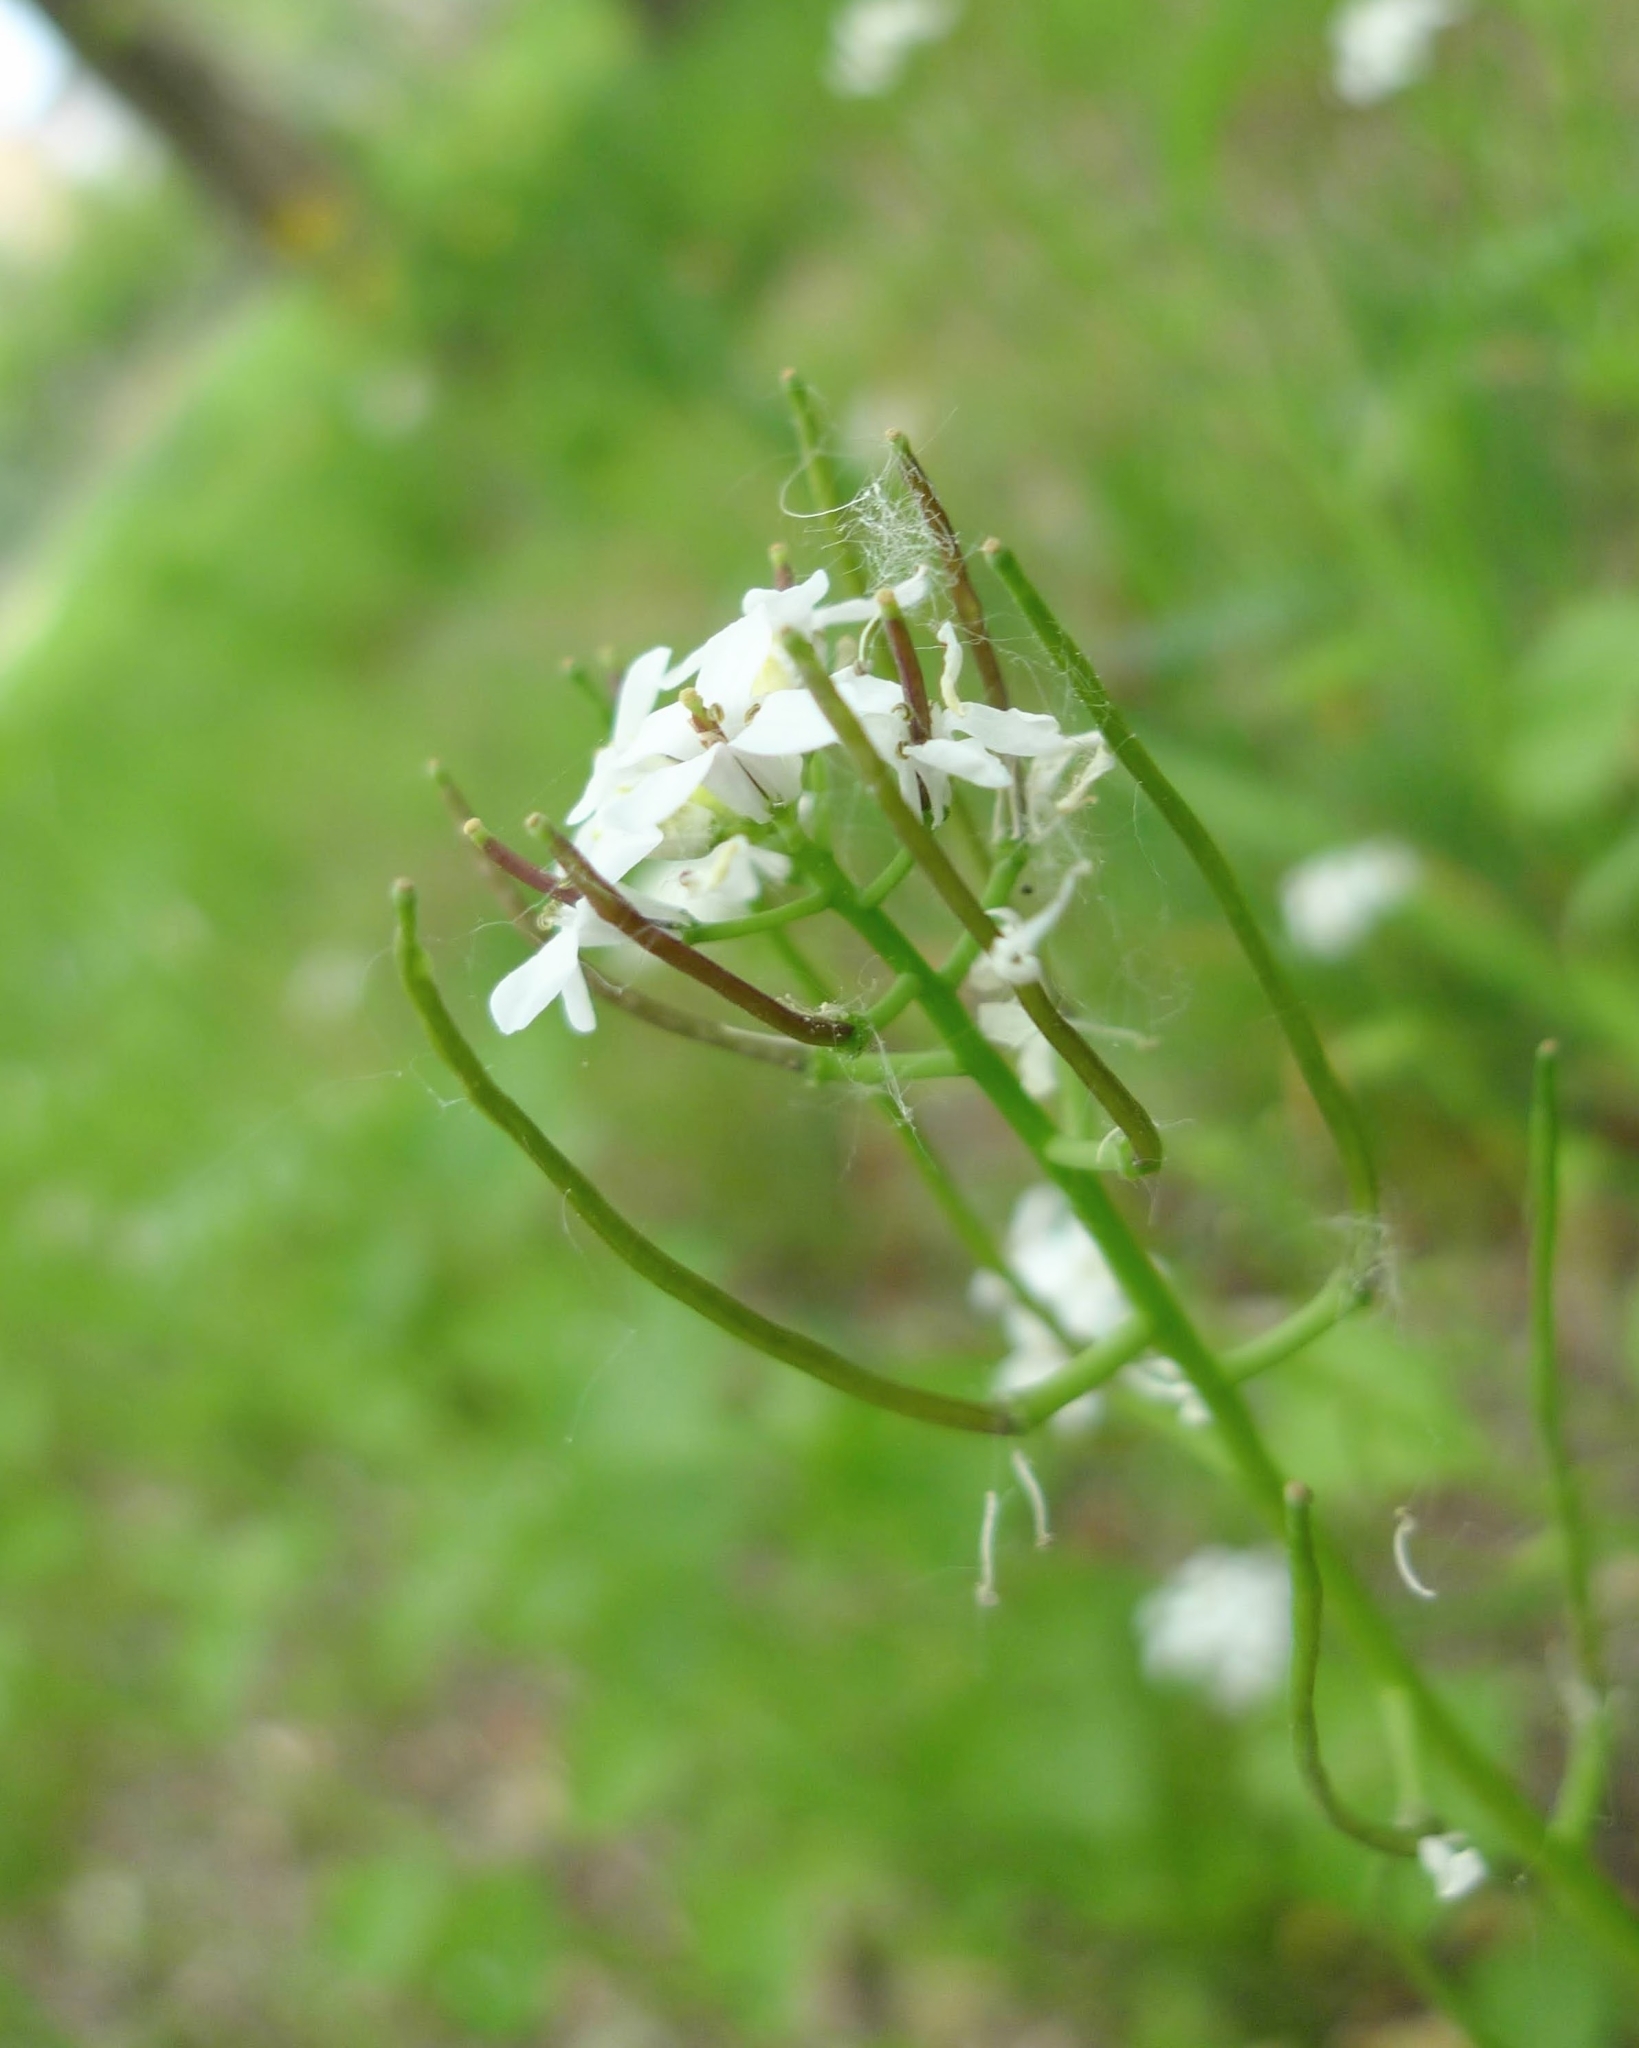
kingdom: Plantae
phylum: Tracheophyta
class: Magnoliopsida
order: Brassicales
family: Brassicaceae
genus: Alliaria
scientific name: Alliaria petiolata
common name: Garlic mustard
